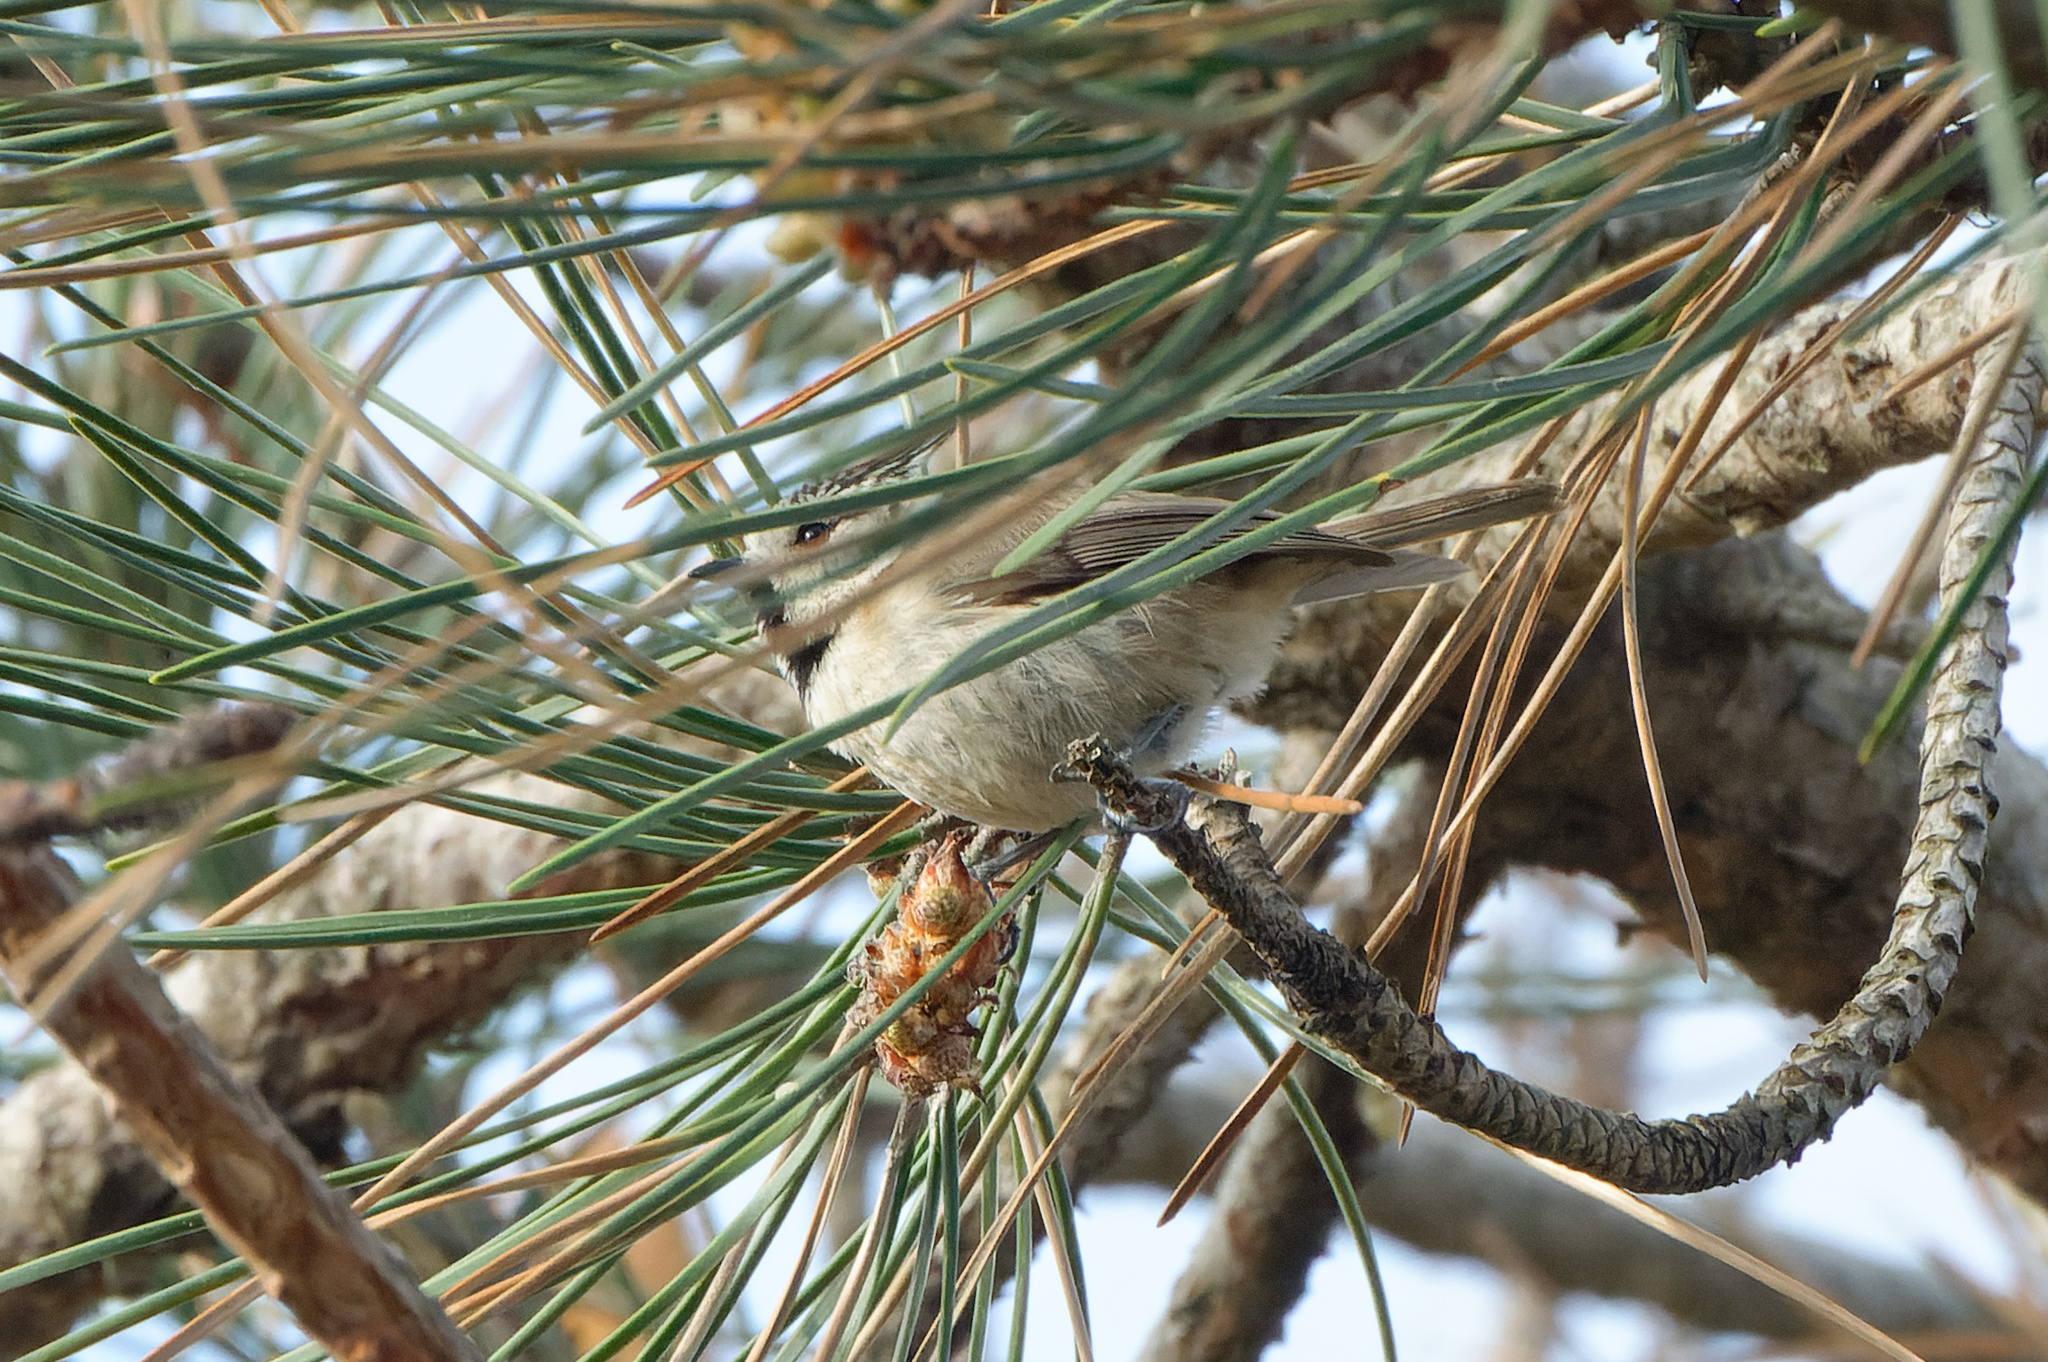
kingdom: Animalia
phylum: Chordata
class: Aves
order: Passeriformes
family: Paridae
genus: Lophophanes
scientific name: Lophophanes cristatus
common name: European crested tit
